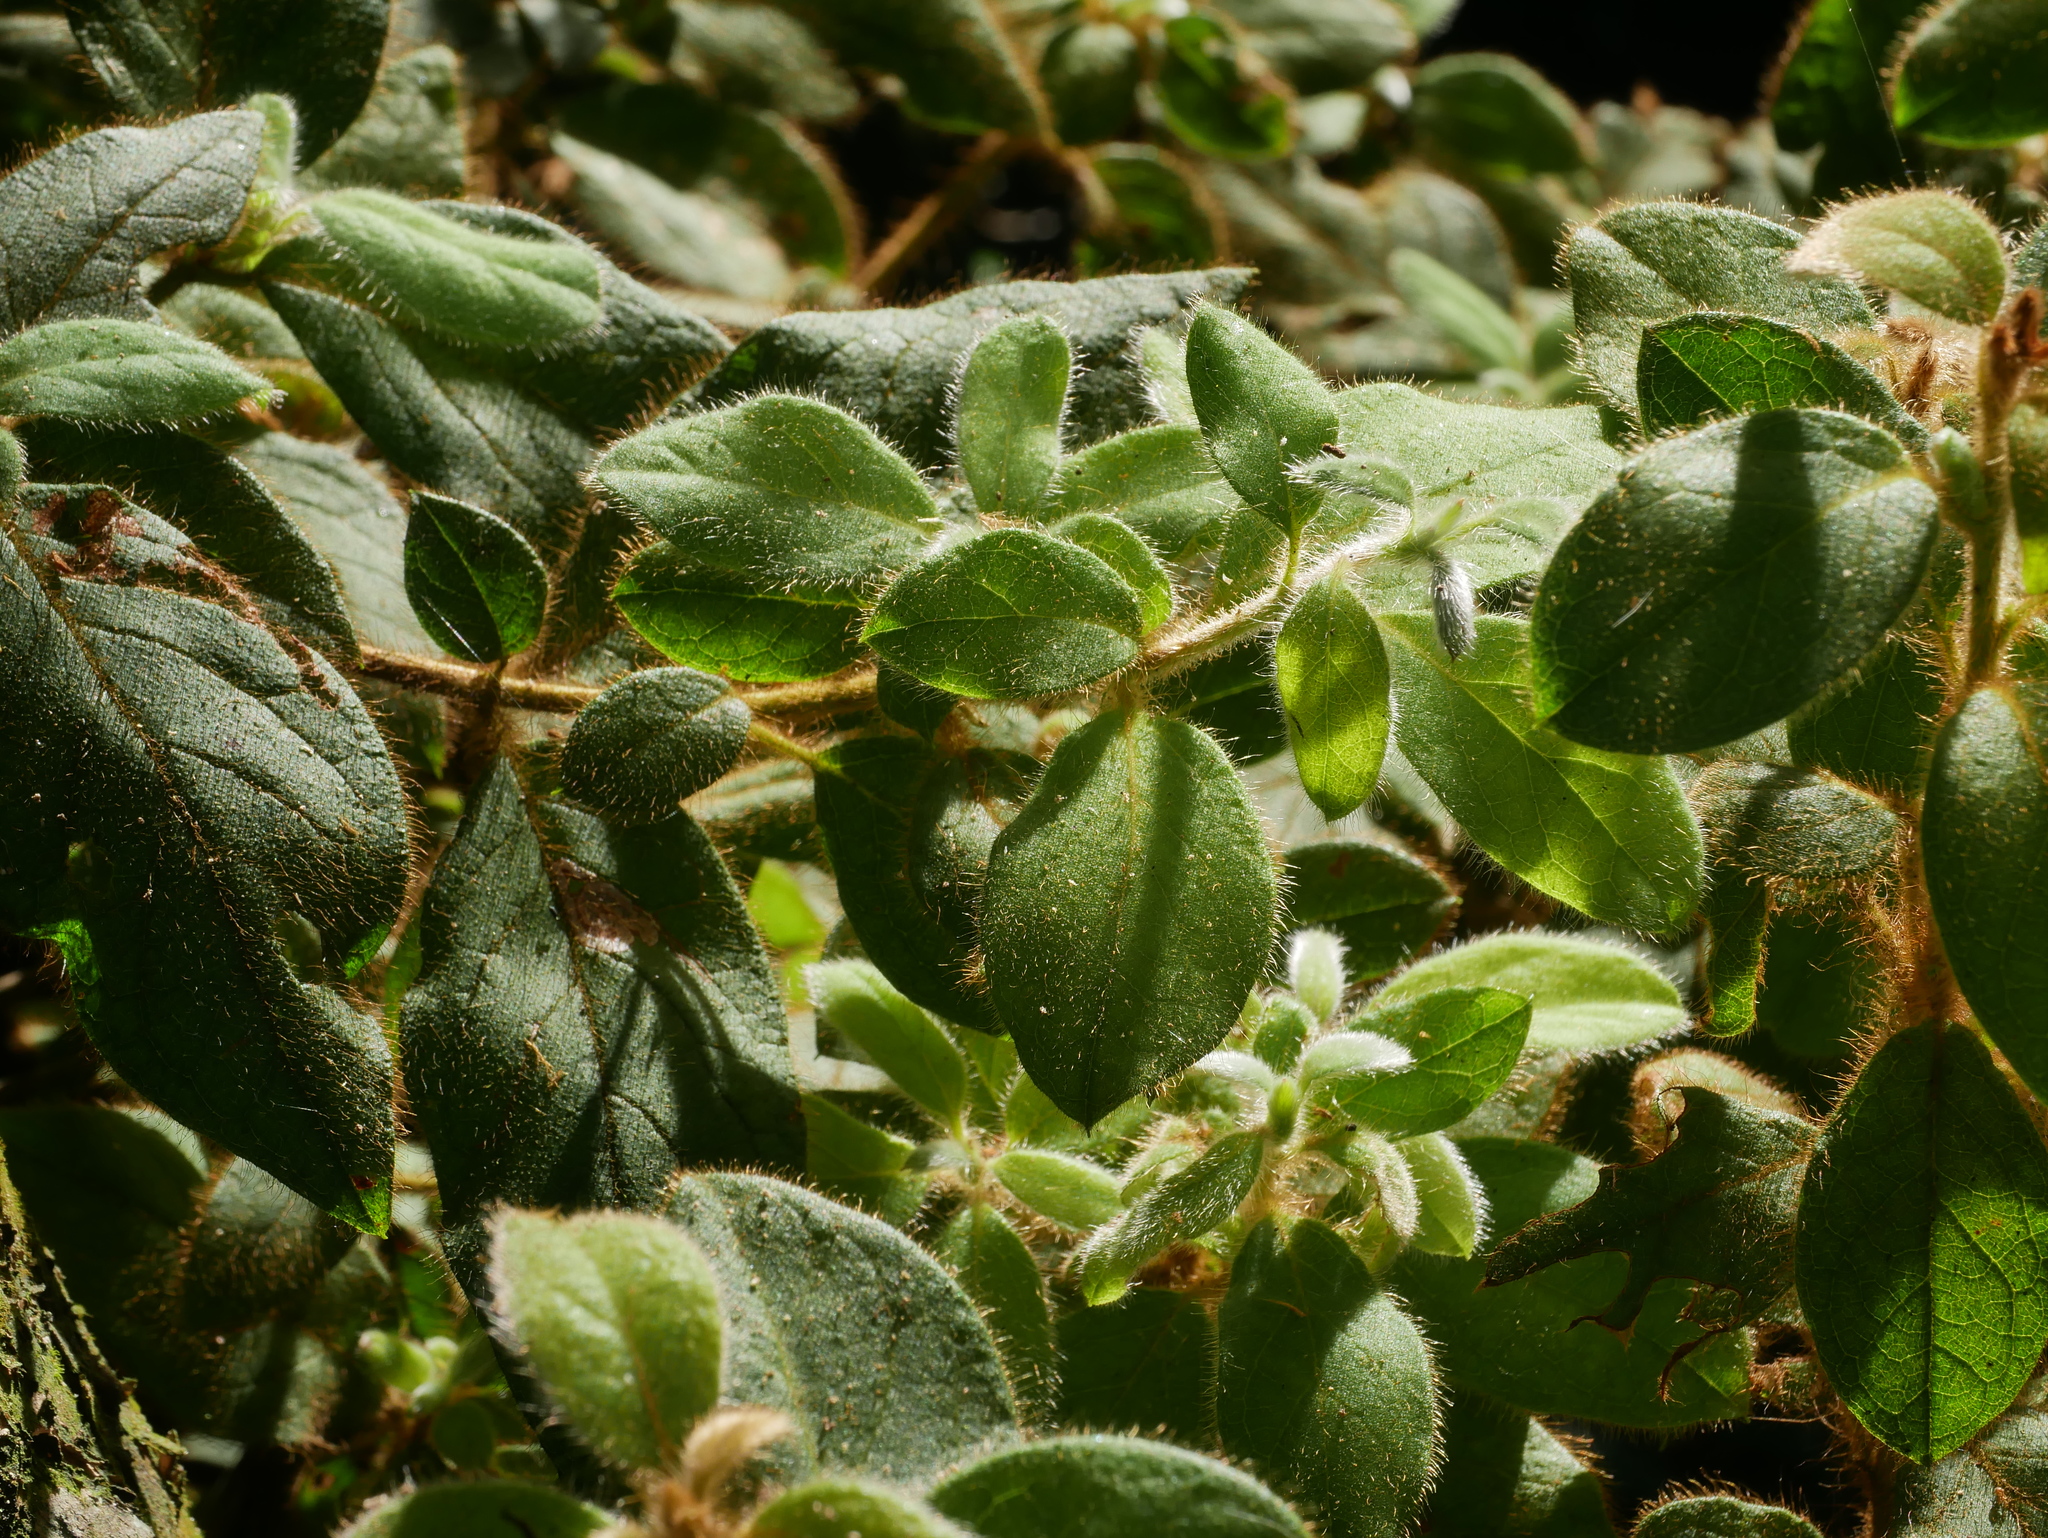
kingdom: Plantae
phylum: Tracheophyta
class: Magnoliopsida
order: Ericales
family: Ericaceae
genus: Rhododendron
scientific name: Rhododendron oldhamii
